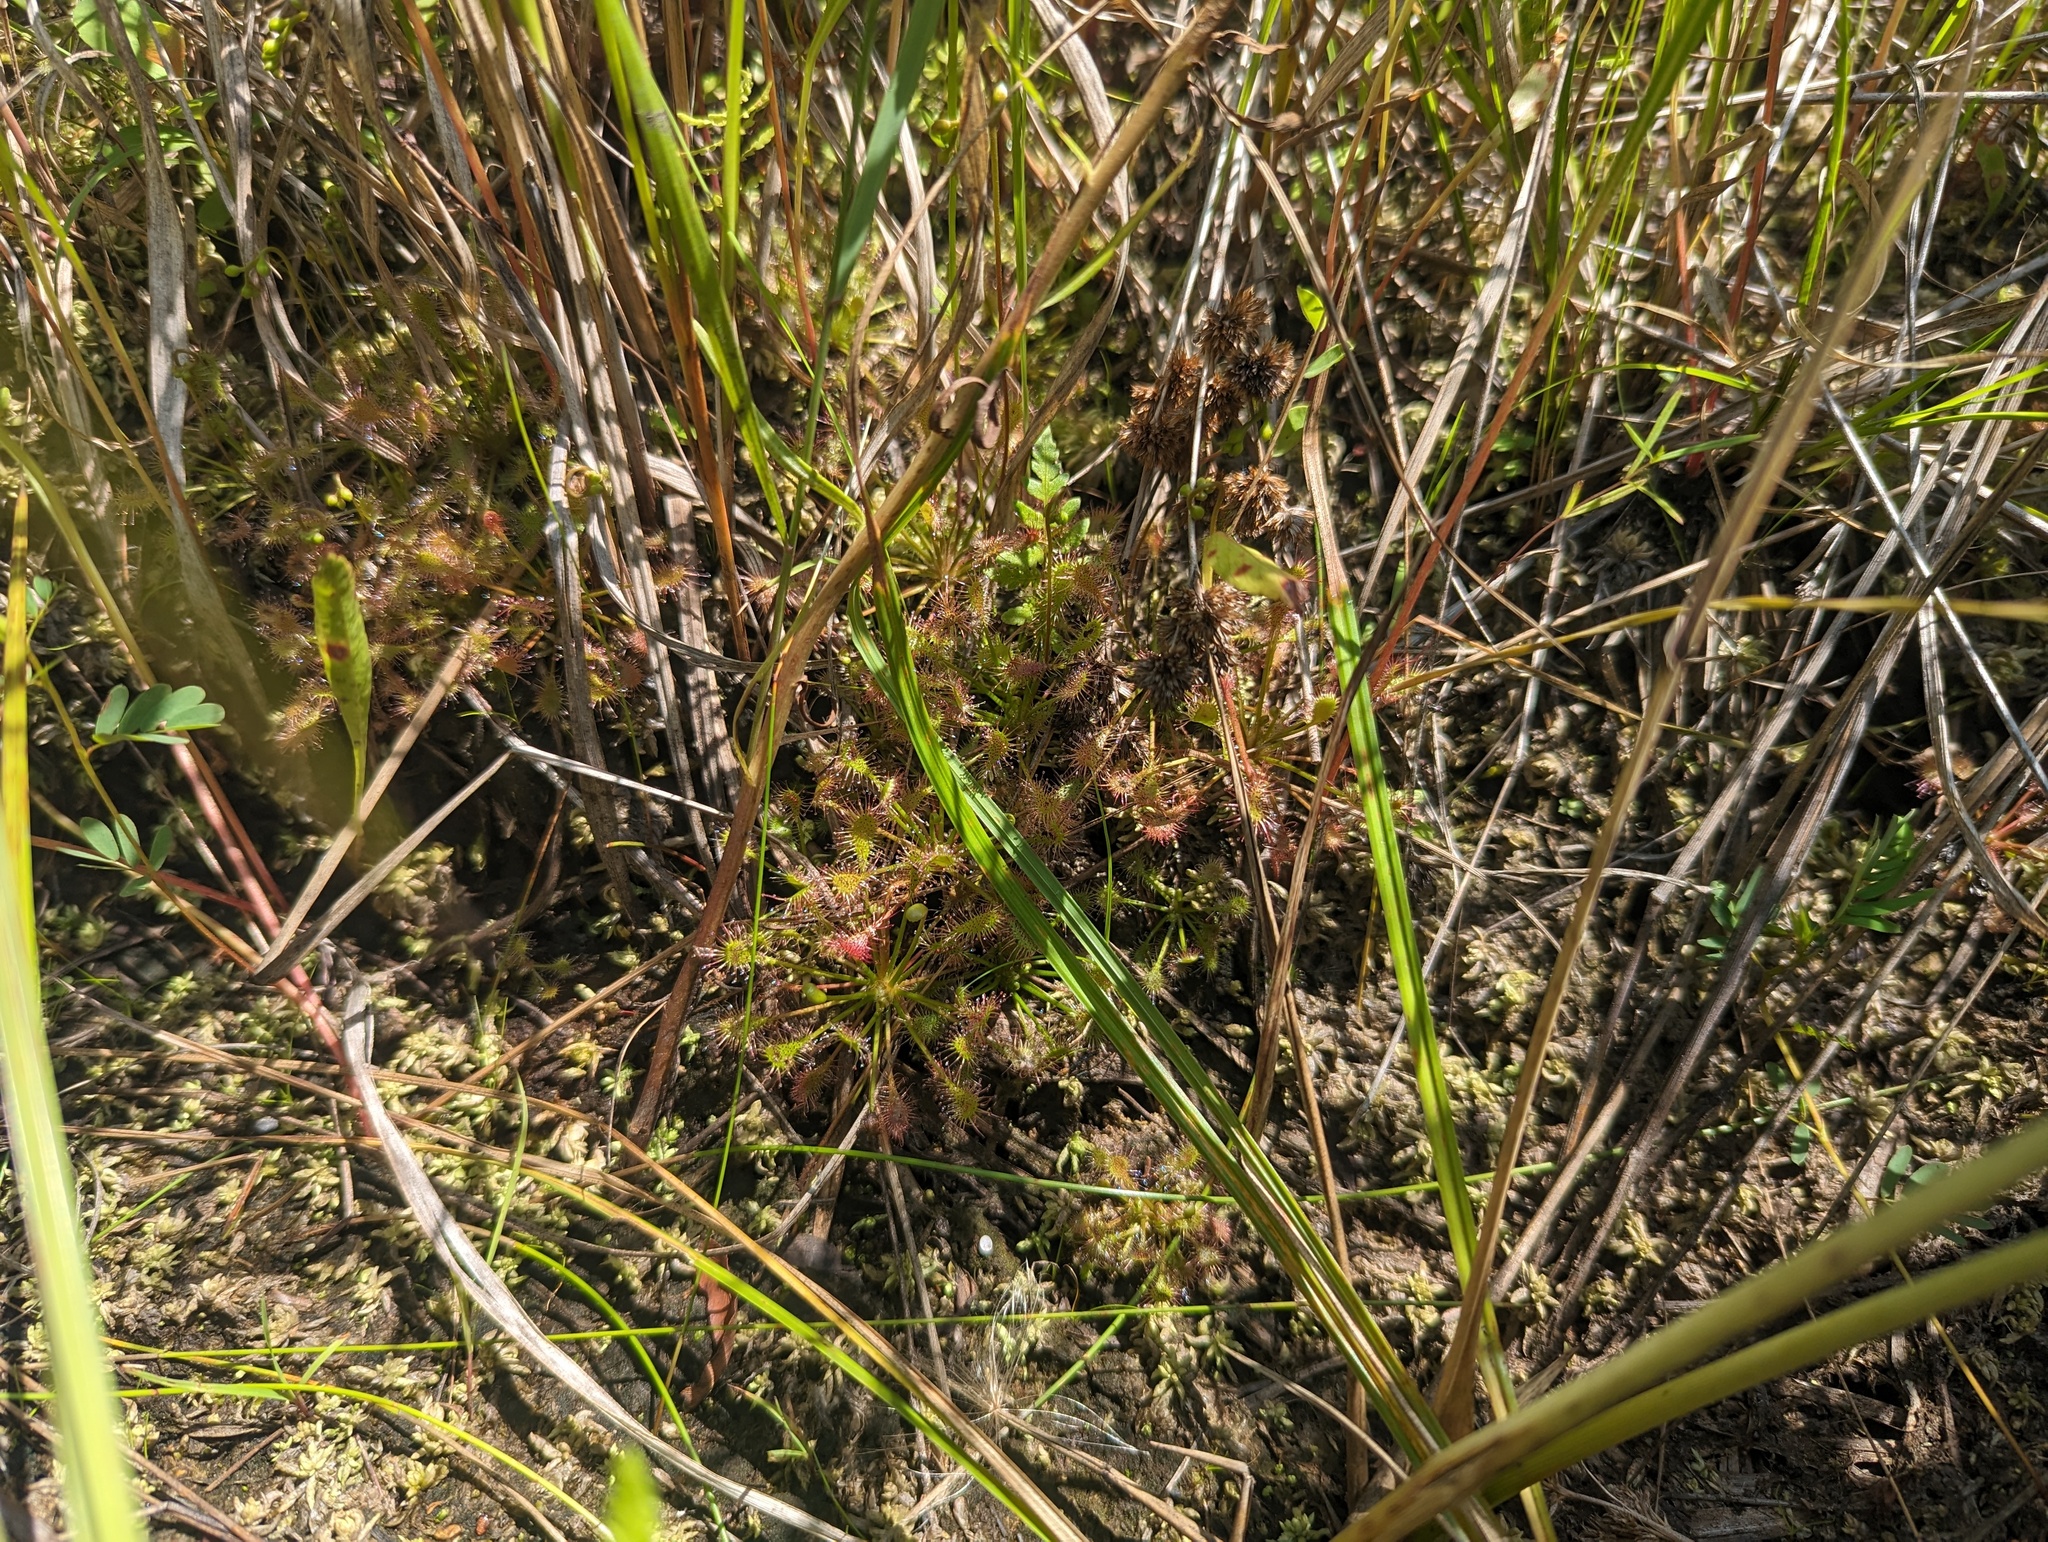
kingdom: Plantae
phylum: Tracheophyta
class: Magnoliopsida
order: Caryophyllales
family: Droseraceae
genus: Drosera
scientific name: Drosera intermedia
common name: Oblong-leaved sundew
